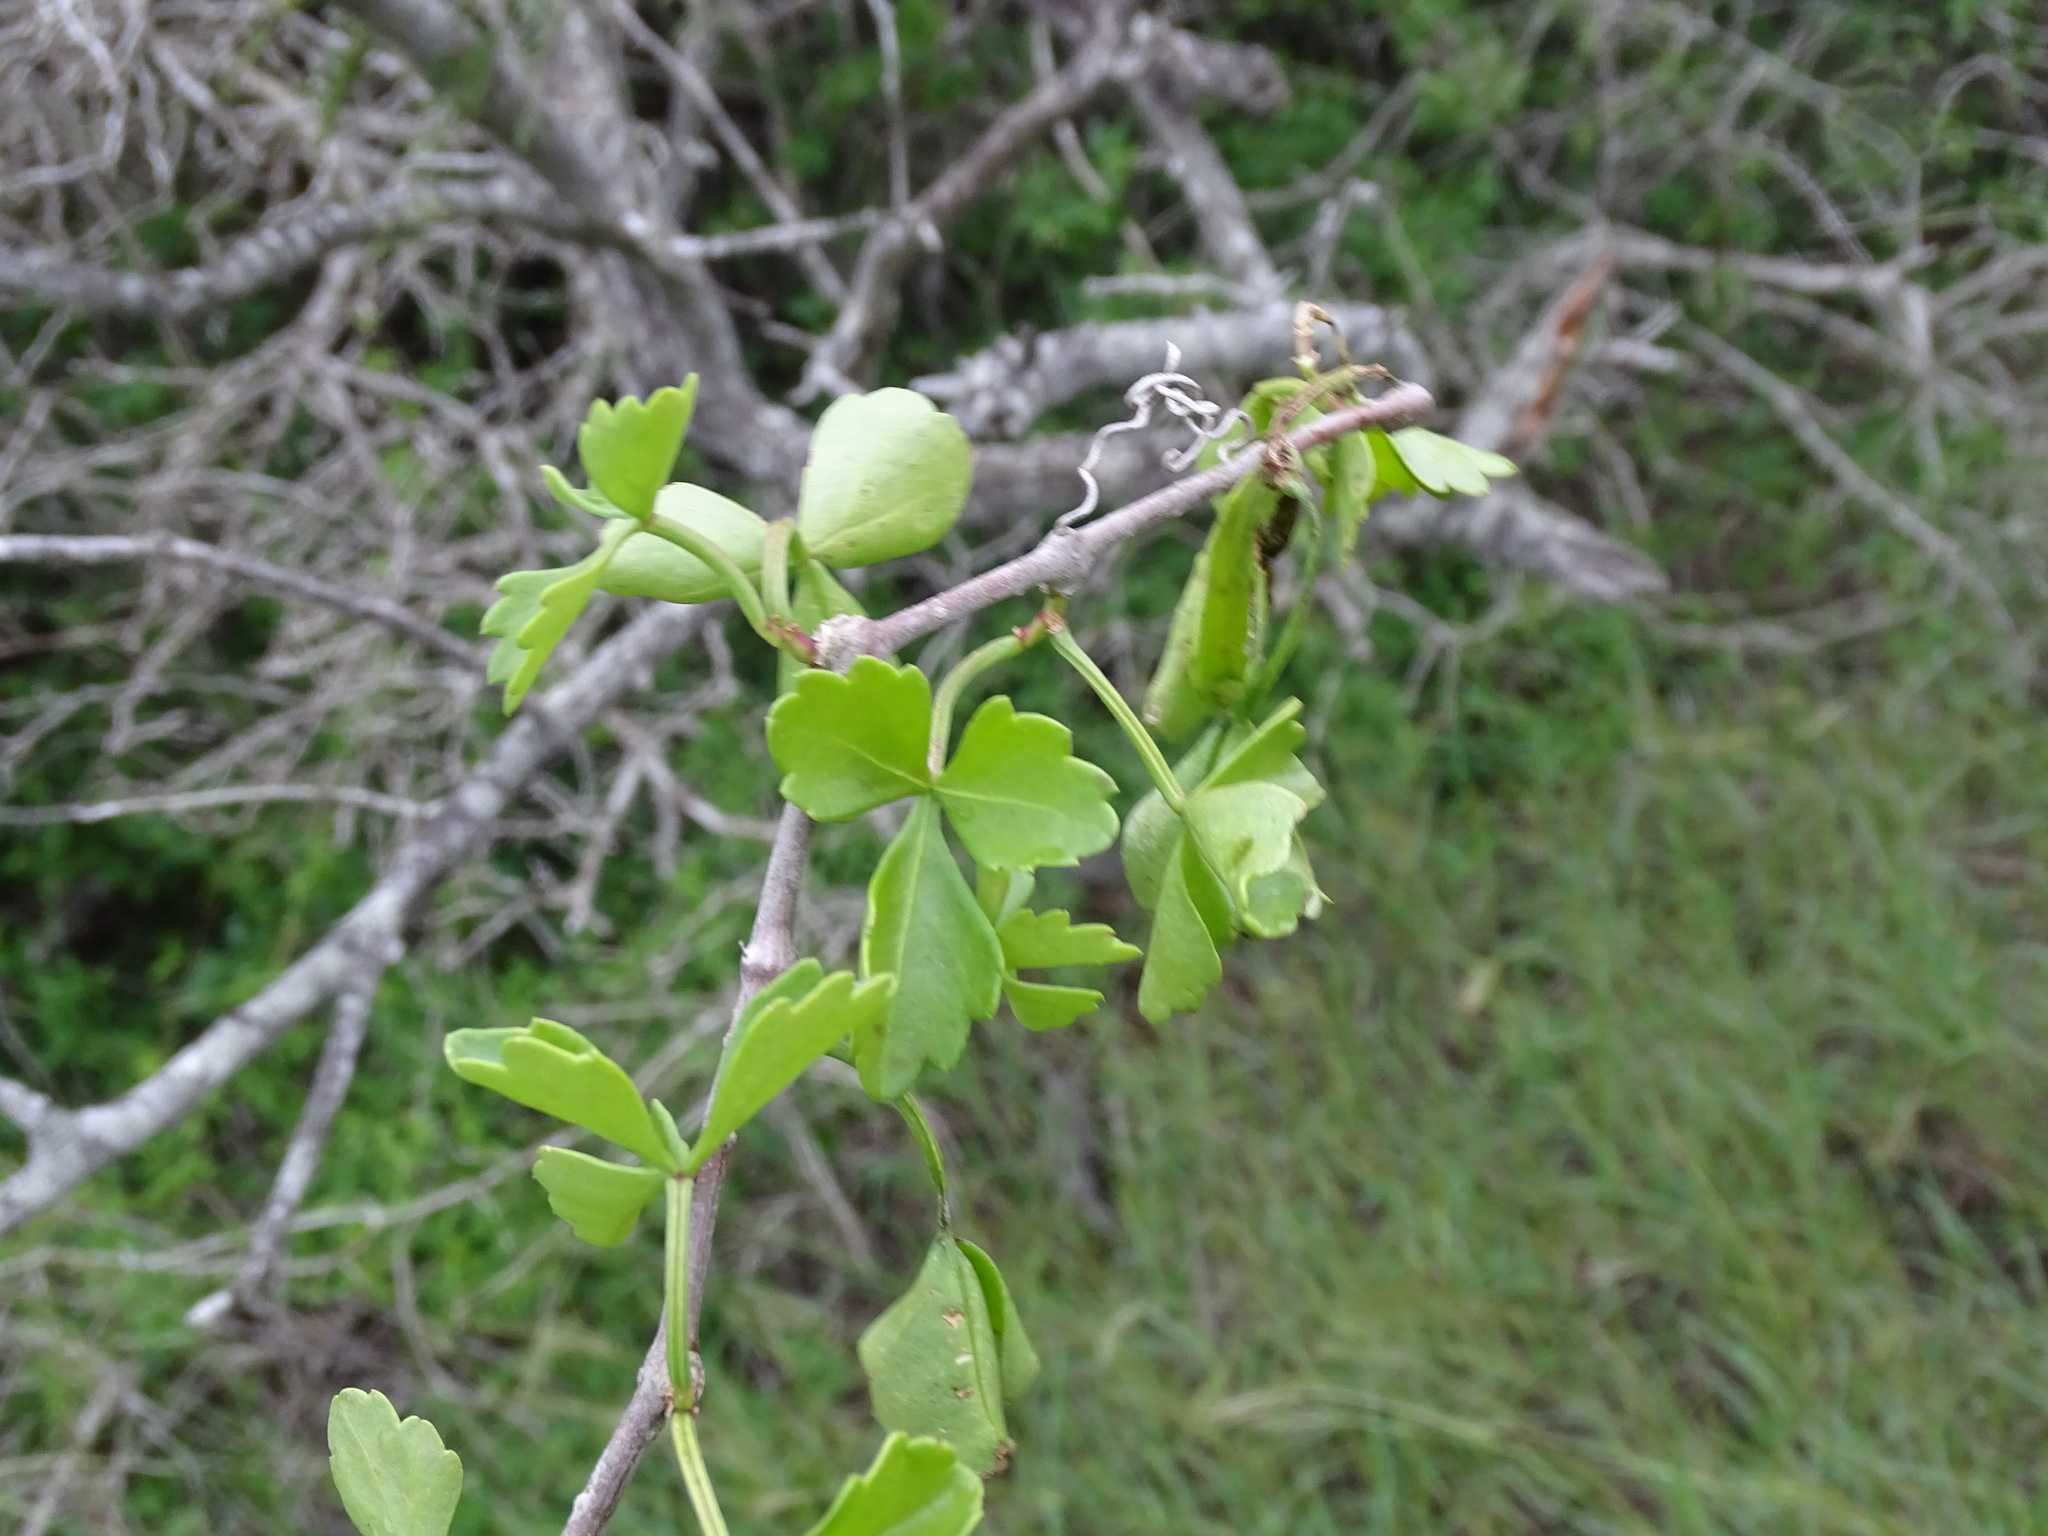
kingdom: Plantae
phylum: Tracheophyta
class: Magnoliopsida
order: Vitales
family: Vitaceae
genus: Cissus
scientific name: Cissus trifoliata
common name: Vine-sorrel
